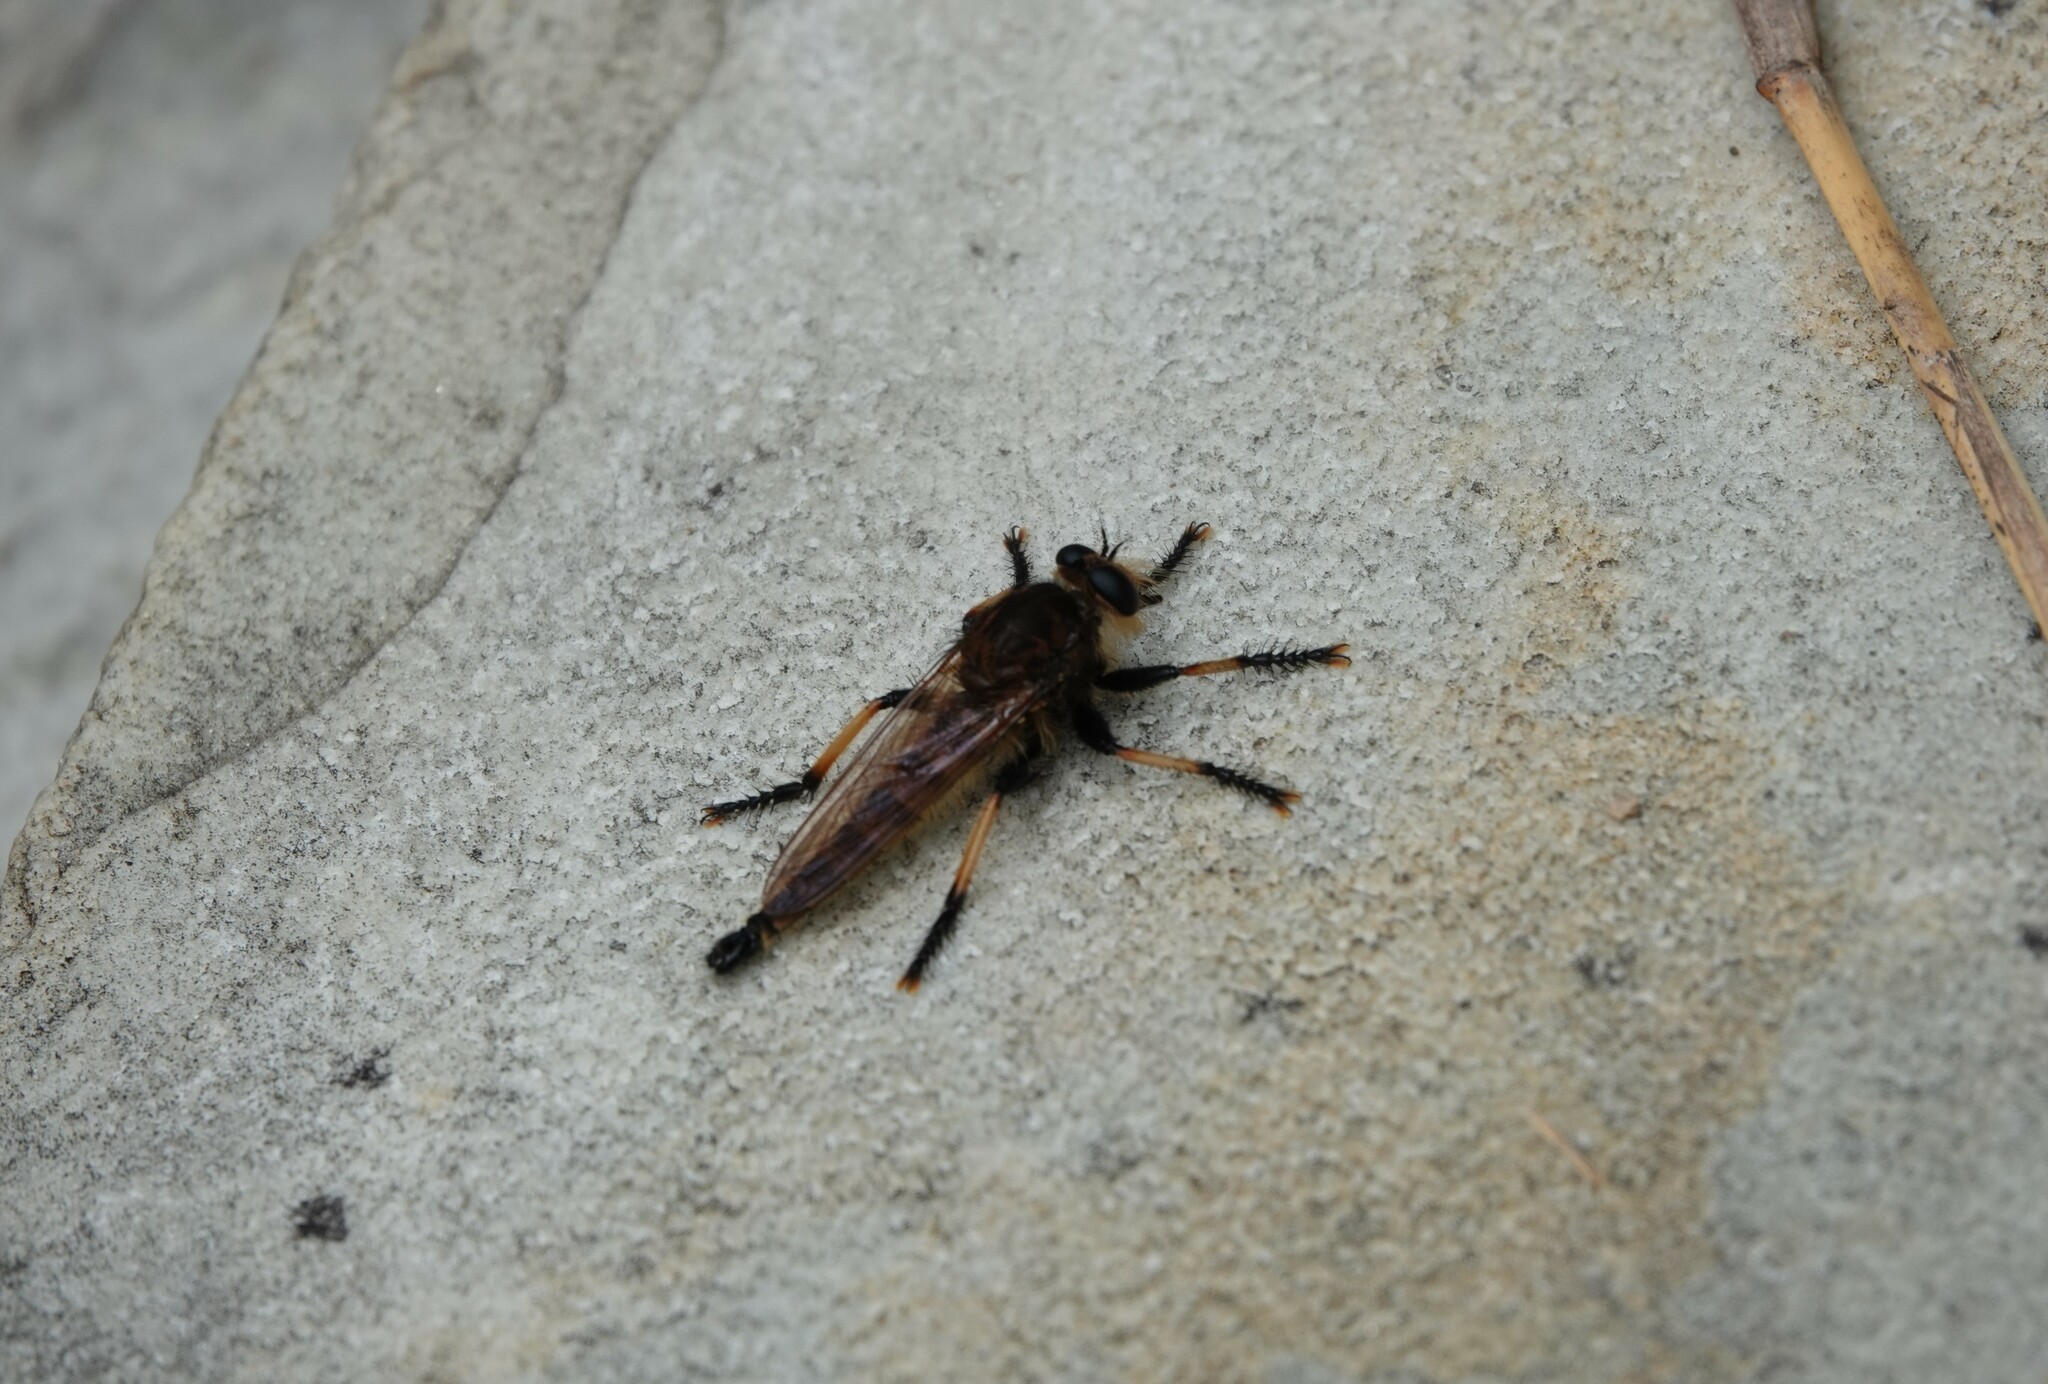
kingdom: Animalia
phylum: Arthropoda
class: Insecta
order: Diptera
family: Asilidae
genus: Promachus
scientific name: Promachus rufipes
